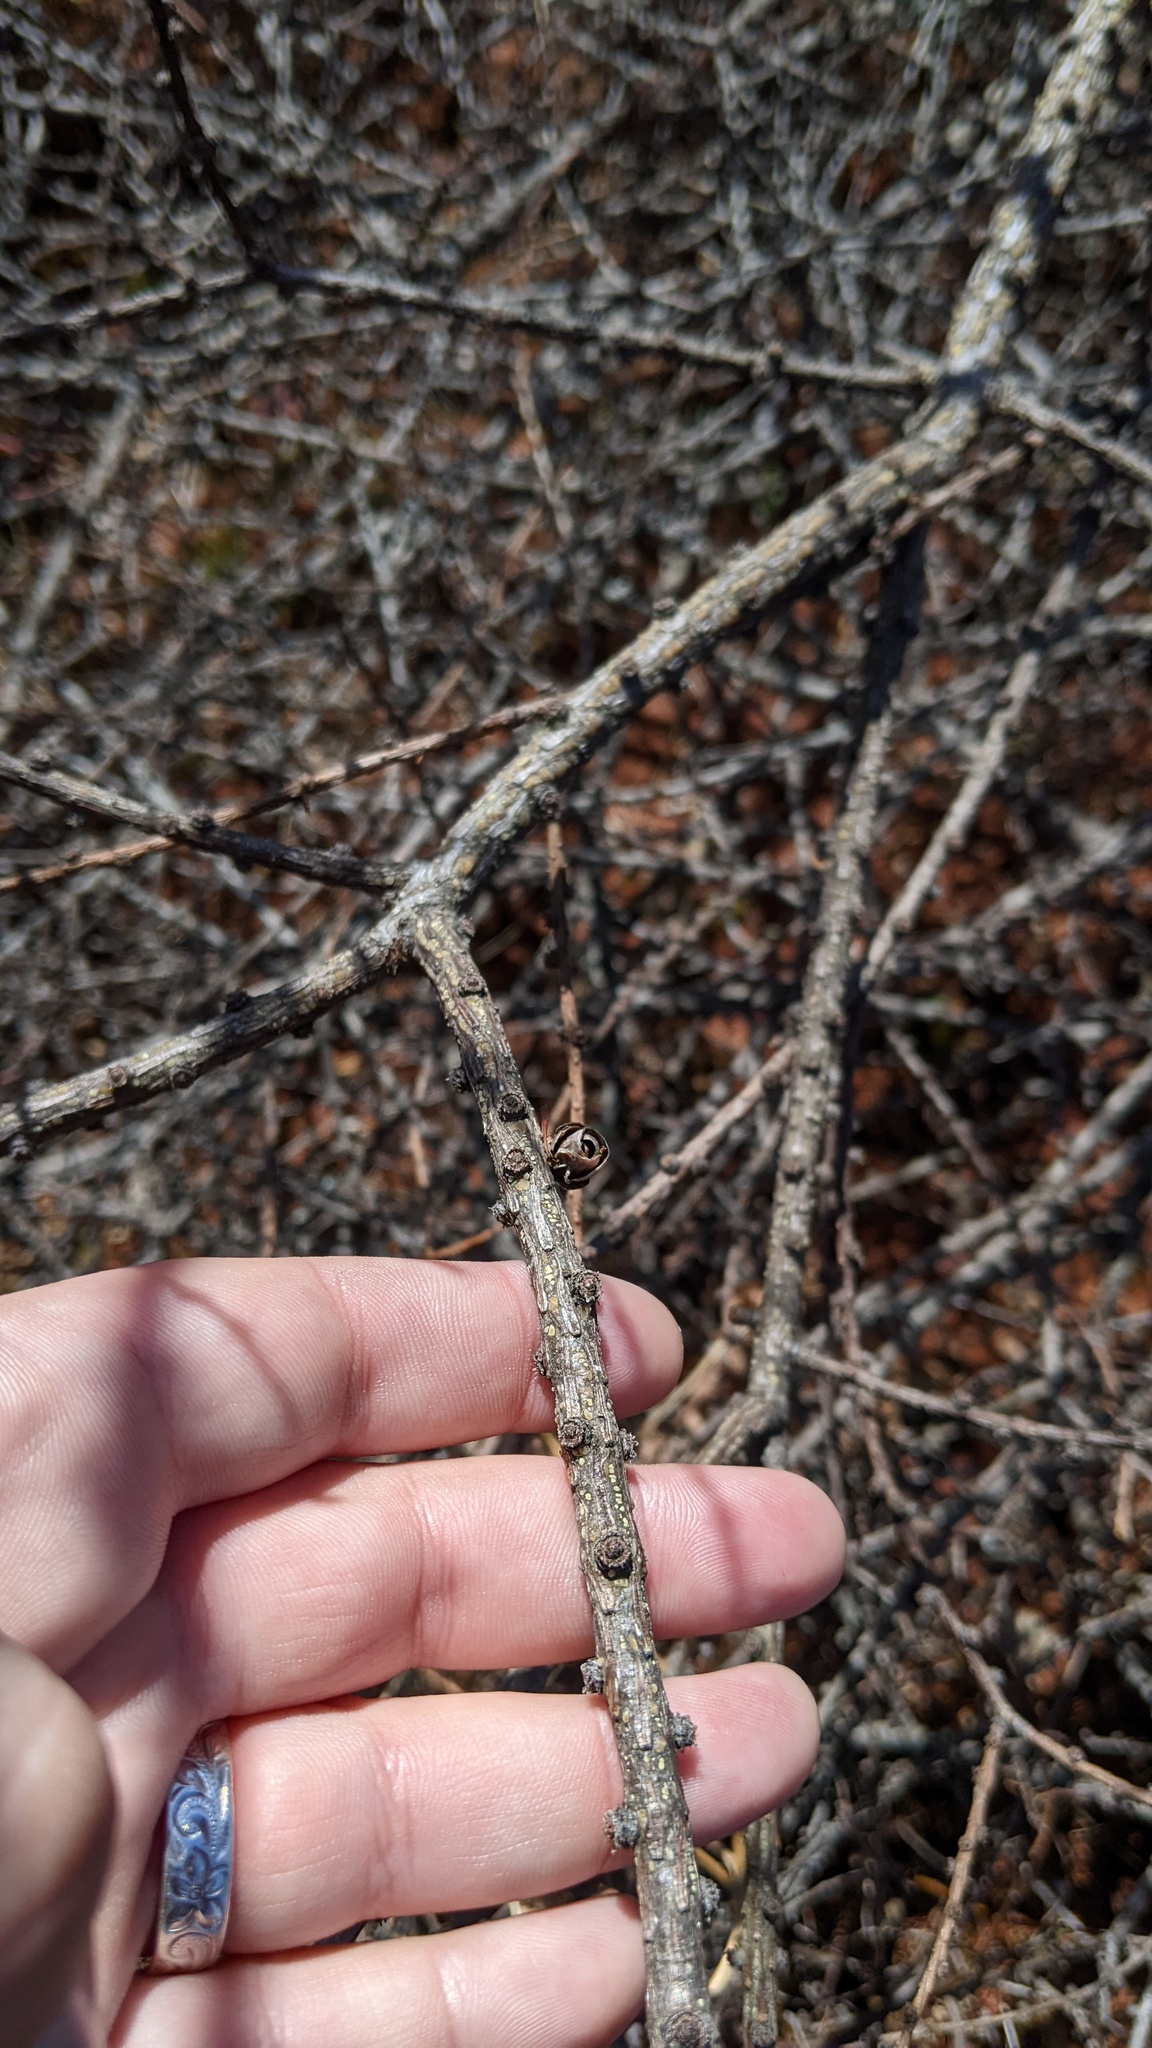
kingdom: Plantae
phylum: Tracheophyta
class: Pinopsida
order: Pinales
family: Pinaceae
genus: Larix
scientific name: Larix laricina
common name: American larch
